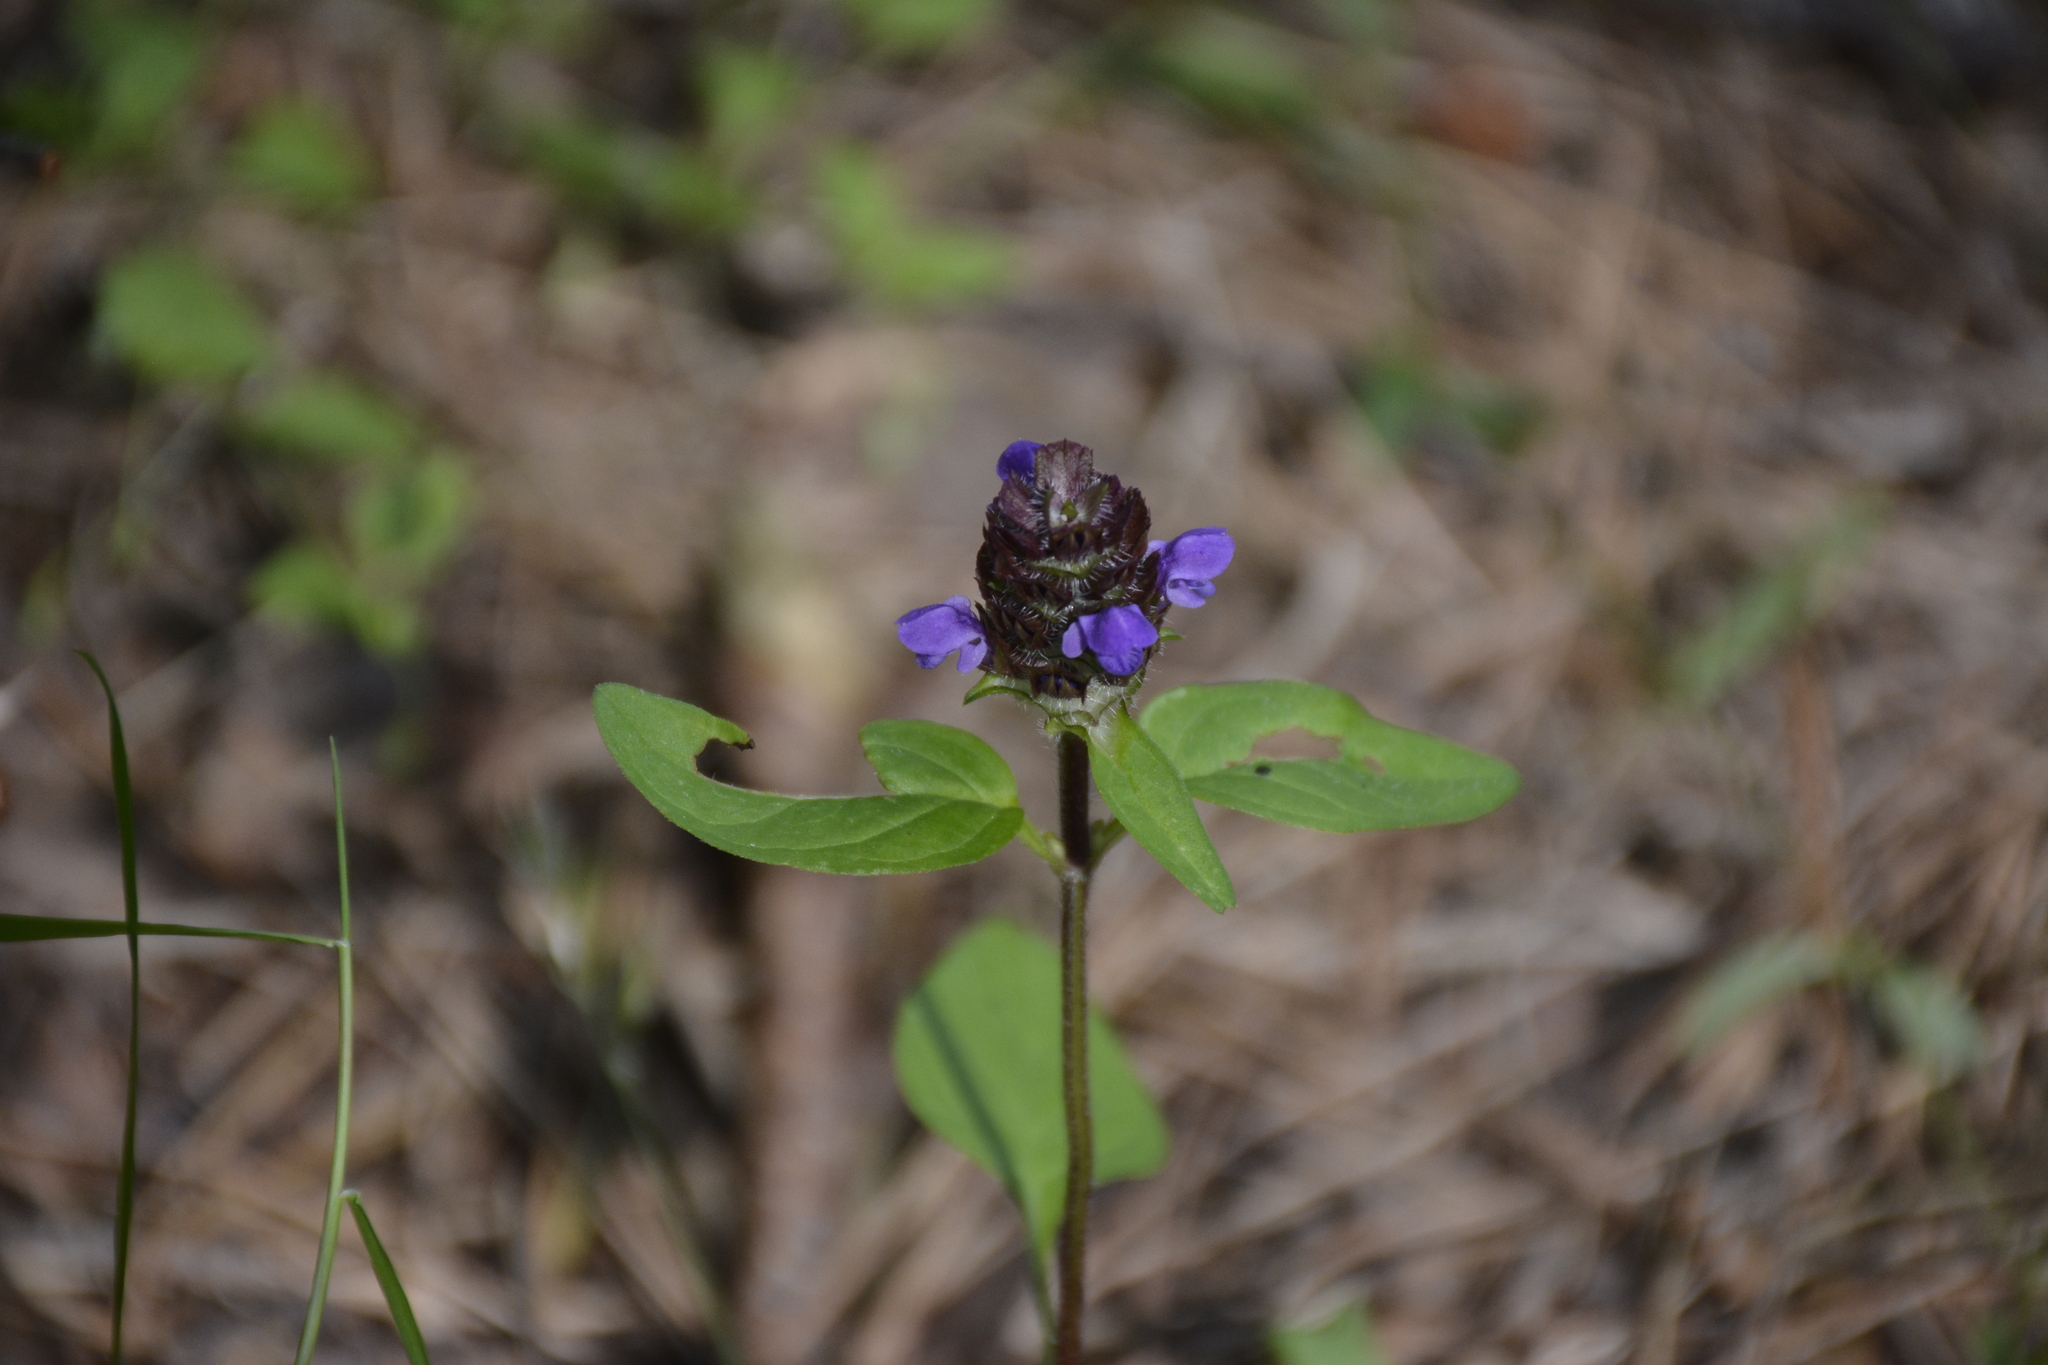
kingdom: Plantae
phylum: Tracheophyta
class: Magnoliopsida
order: Lamiales
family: Lamiaceae
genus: Prunella
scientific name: Prunella vulgaris
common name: Heal-all
